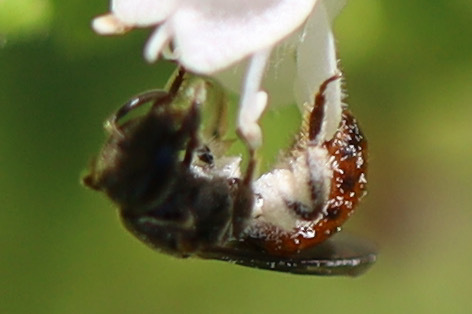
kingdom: Animalia
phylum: Arthropoda
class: Insecta
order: Hymenoptera
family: Halictidae
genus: Lasioglossum
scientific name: Lasioglossum ovaliceps
